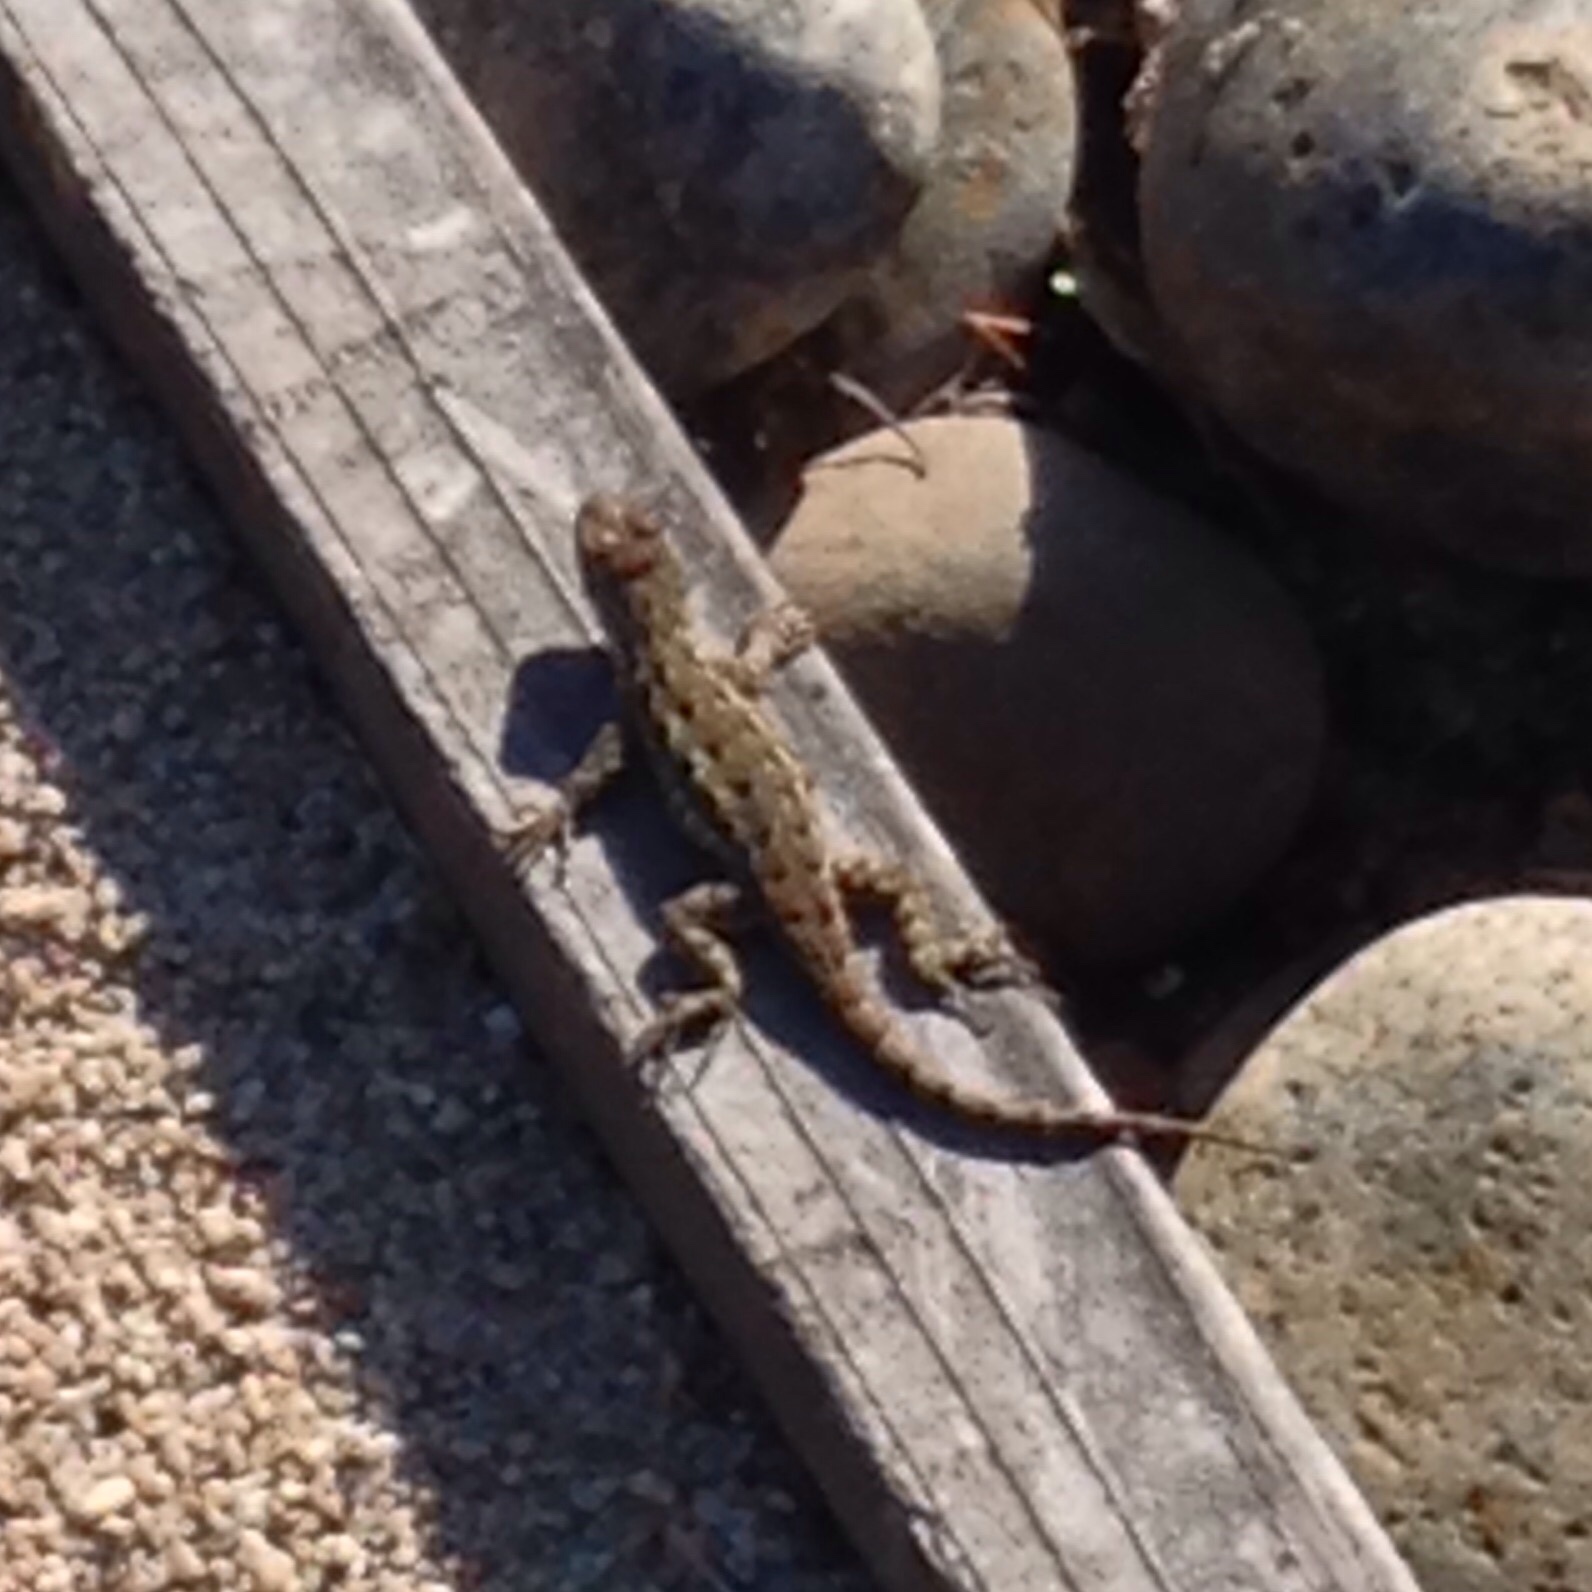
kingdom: Animalia
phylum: Chordata
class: Squamata
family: Phrynosomatidae
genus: Sceloporus
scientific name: Sceloporus occidentalis
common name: Western fence lizard
